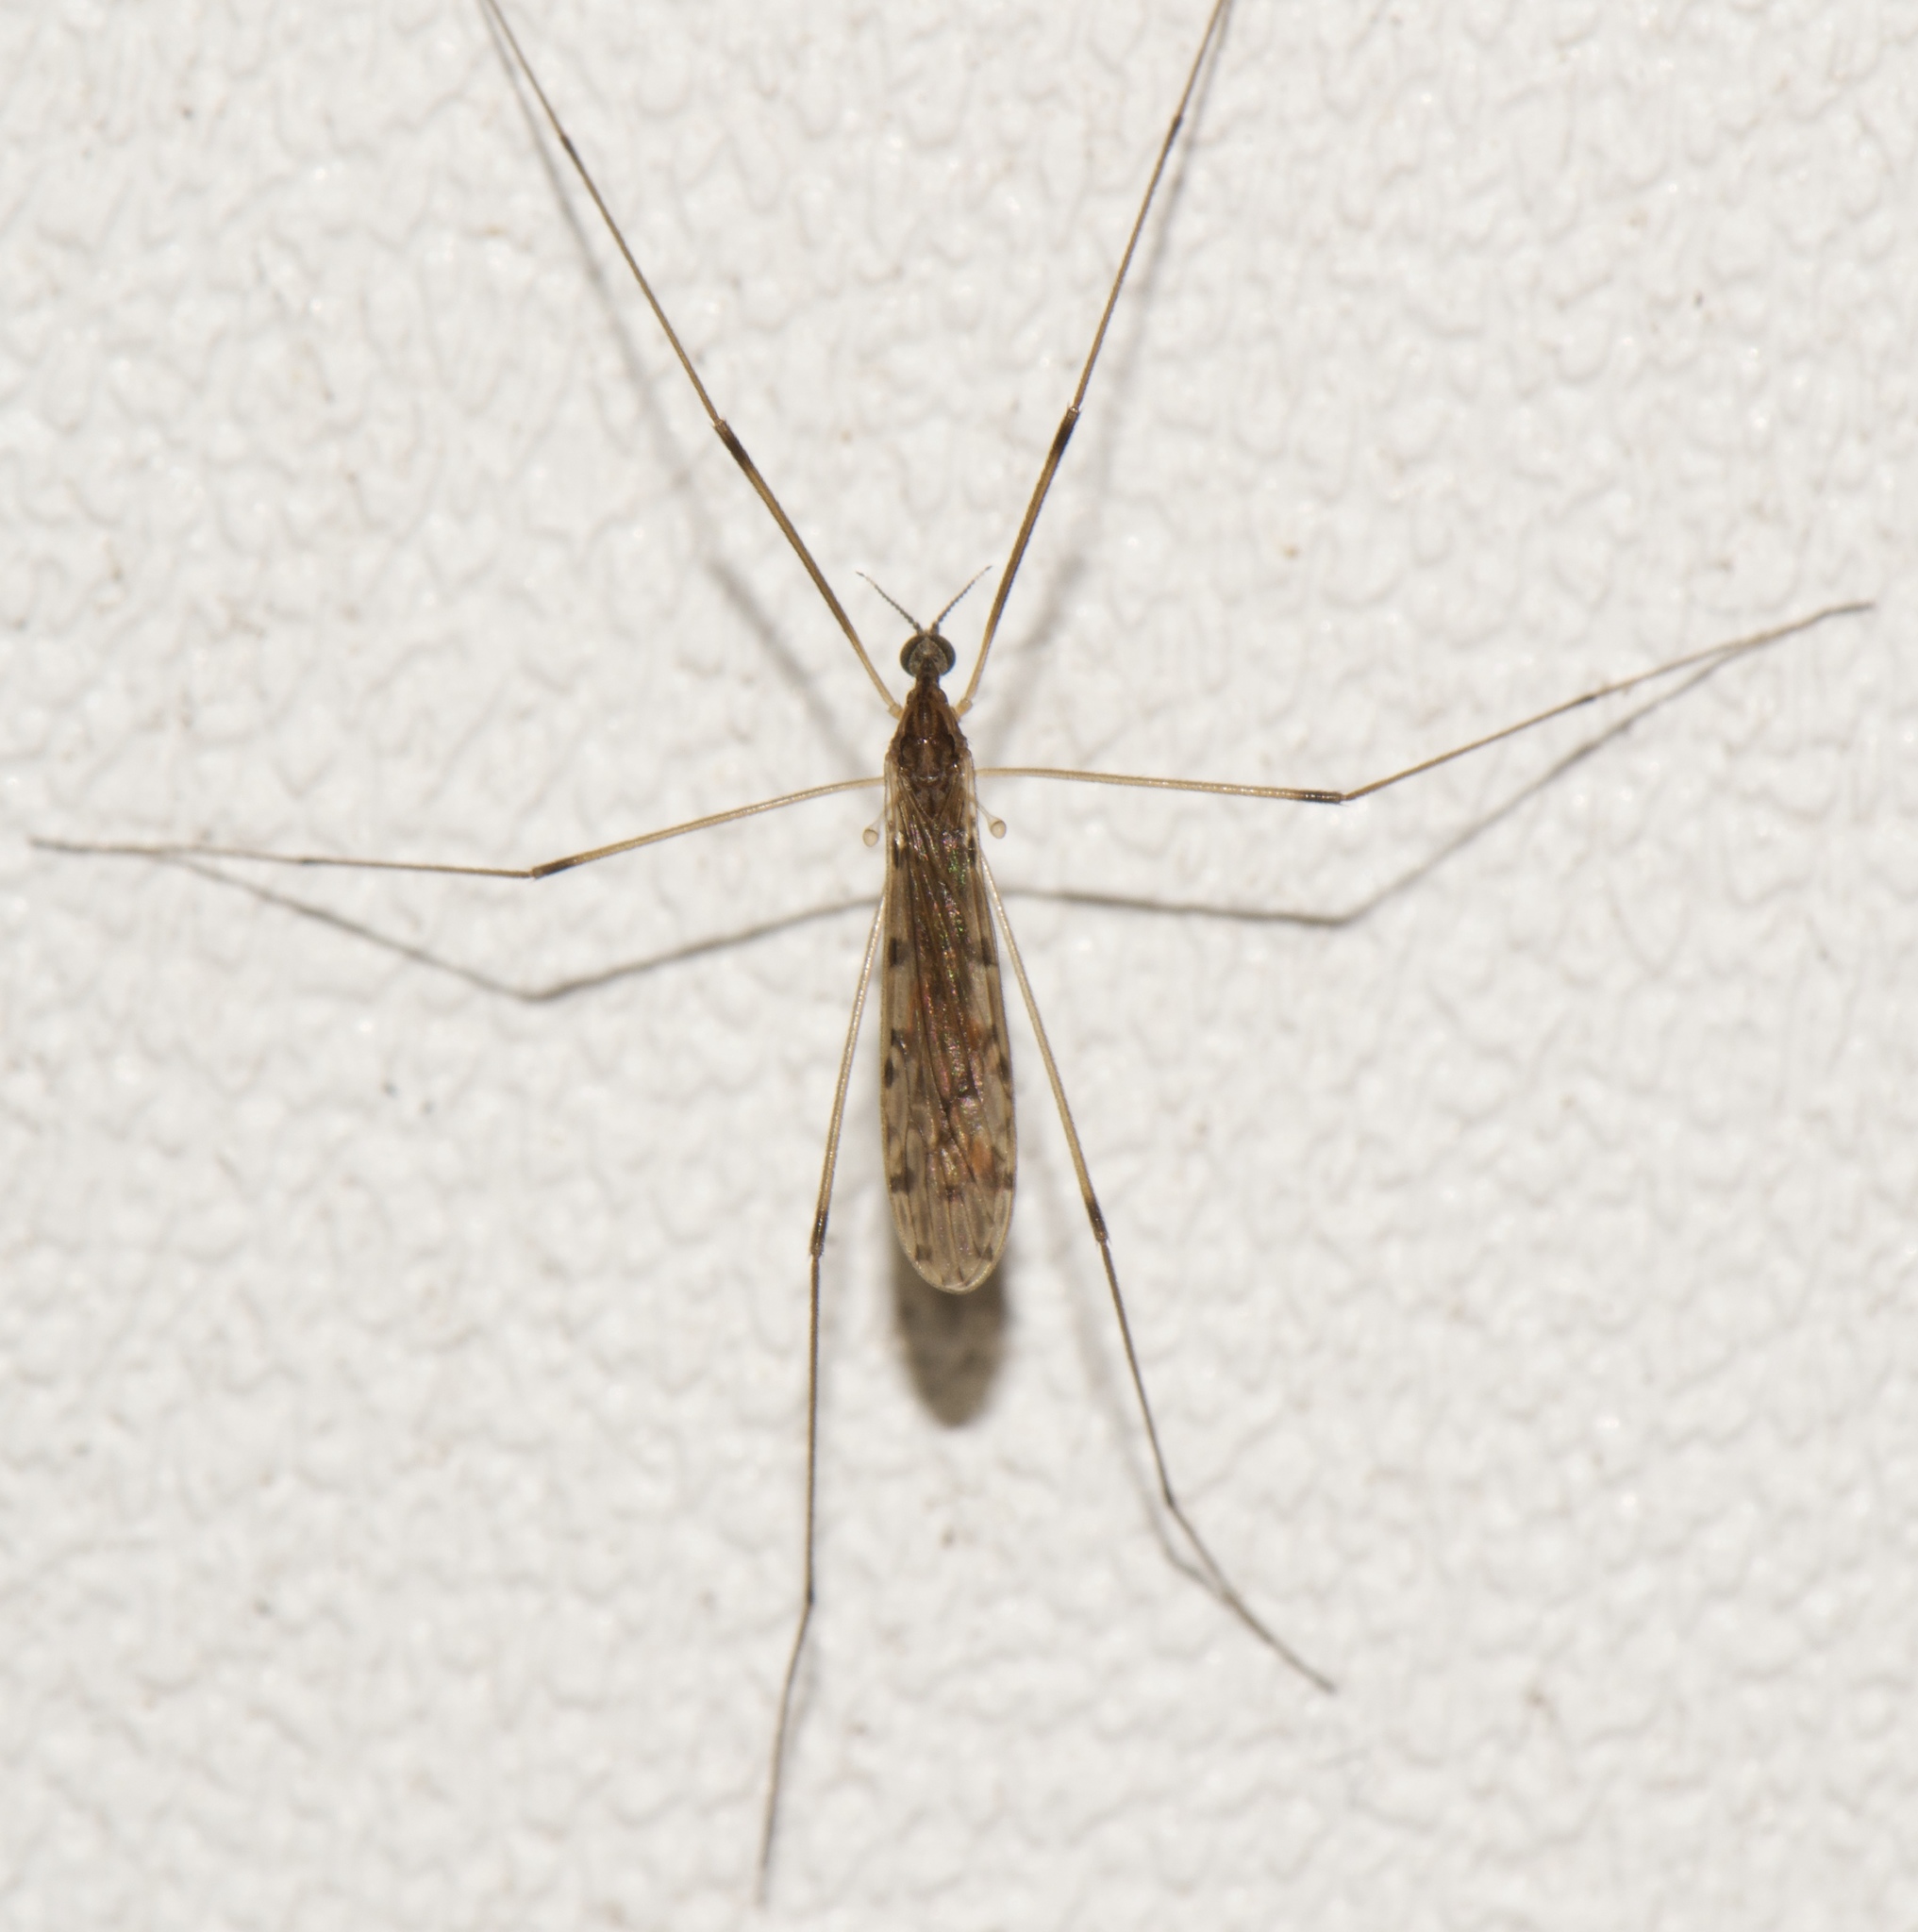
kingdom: Animalia
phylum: Arthropoda
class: Insecta
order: Diptera
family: Limoniidae
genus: Rhipidia
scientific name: Rhipidia domestica
